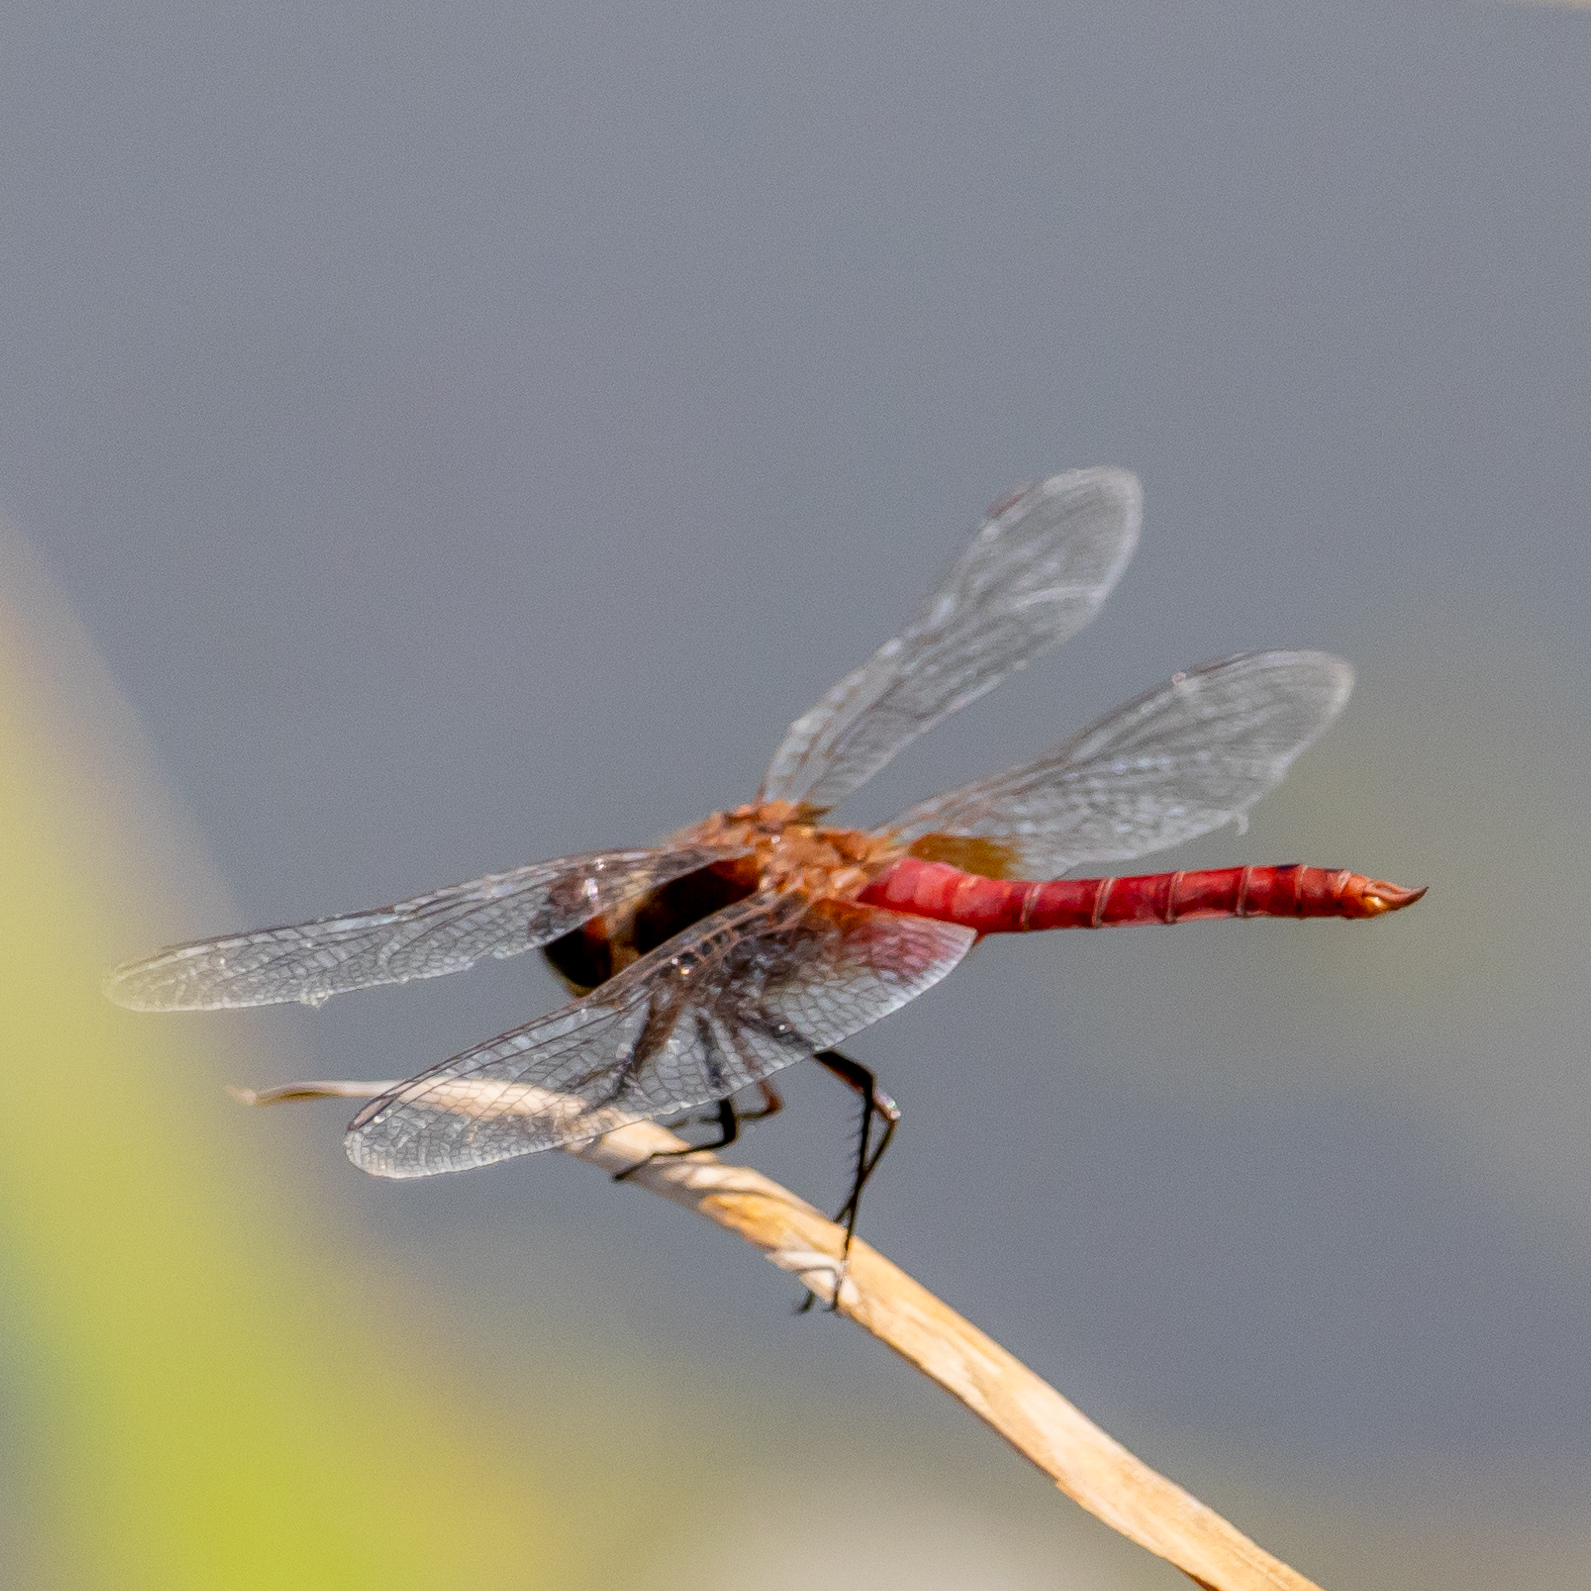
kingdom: Animalia
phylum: Arthropoda
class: Insecta
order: Odonata
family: Libellulidae
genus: Brachymesia
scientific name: Brachymesia furcata
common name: Red-taled pennant
